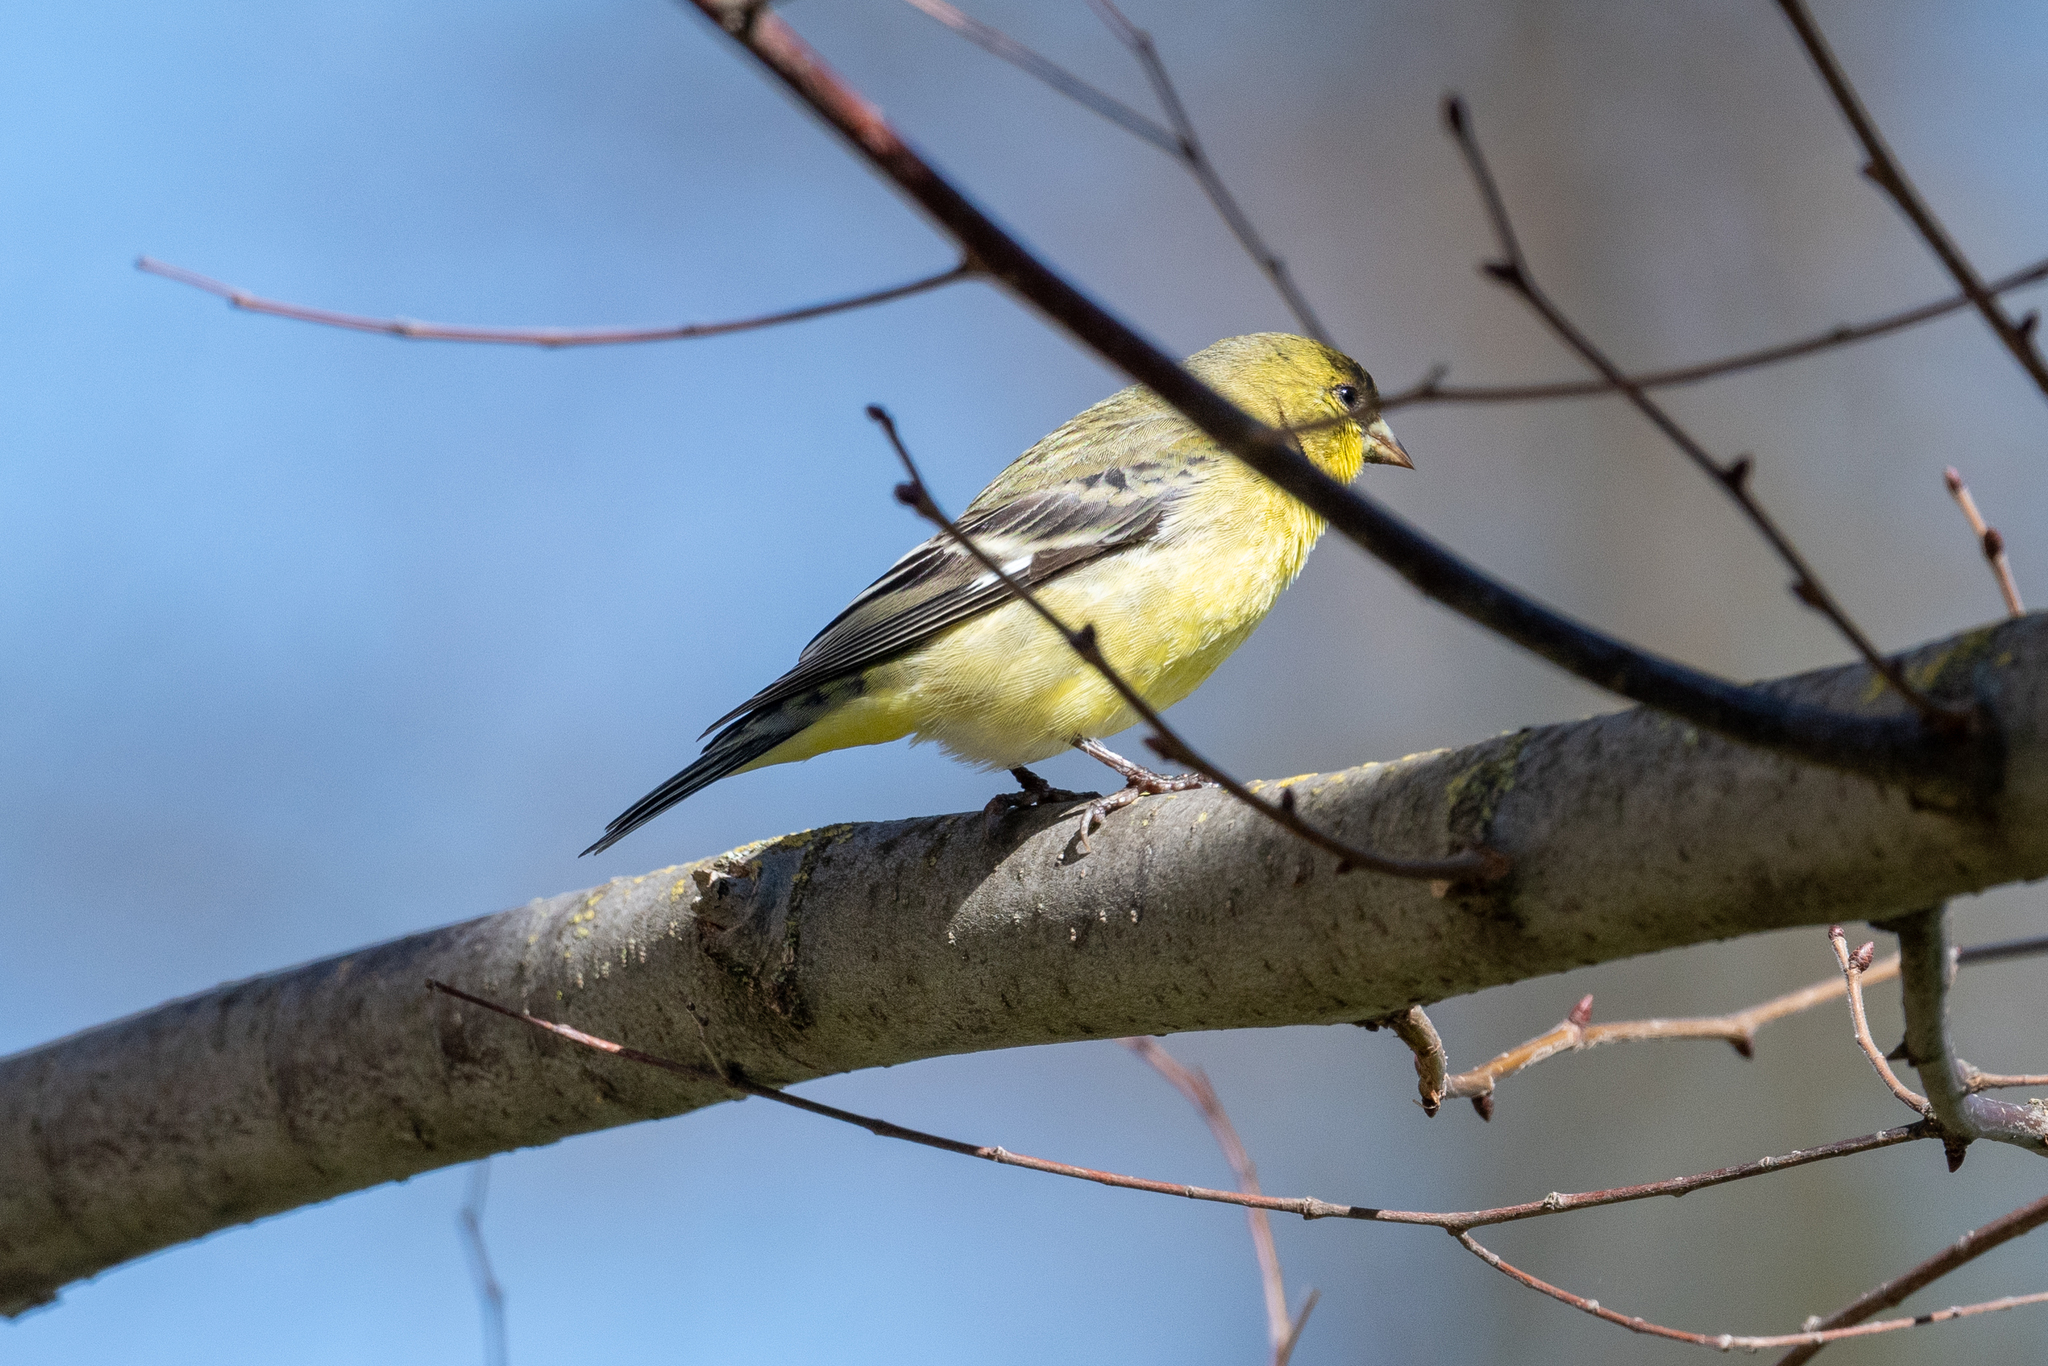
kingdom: Animalia
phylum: Chordata
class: Aves
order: Passeriformes
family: Fringillidae
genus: Spinus
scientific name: Spinus psaltria
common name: Lesser goldfinch
